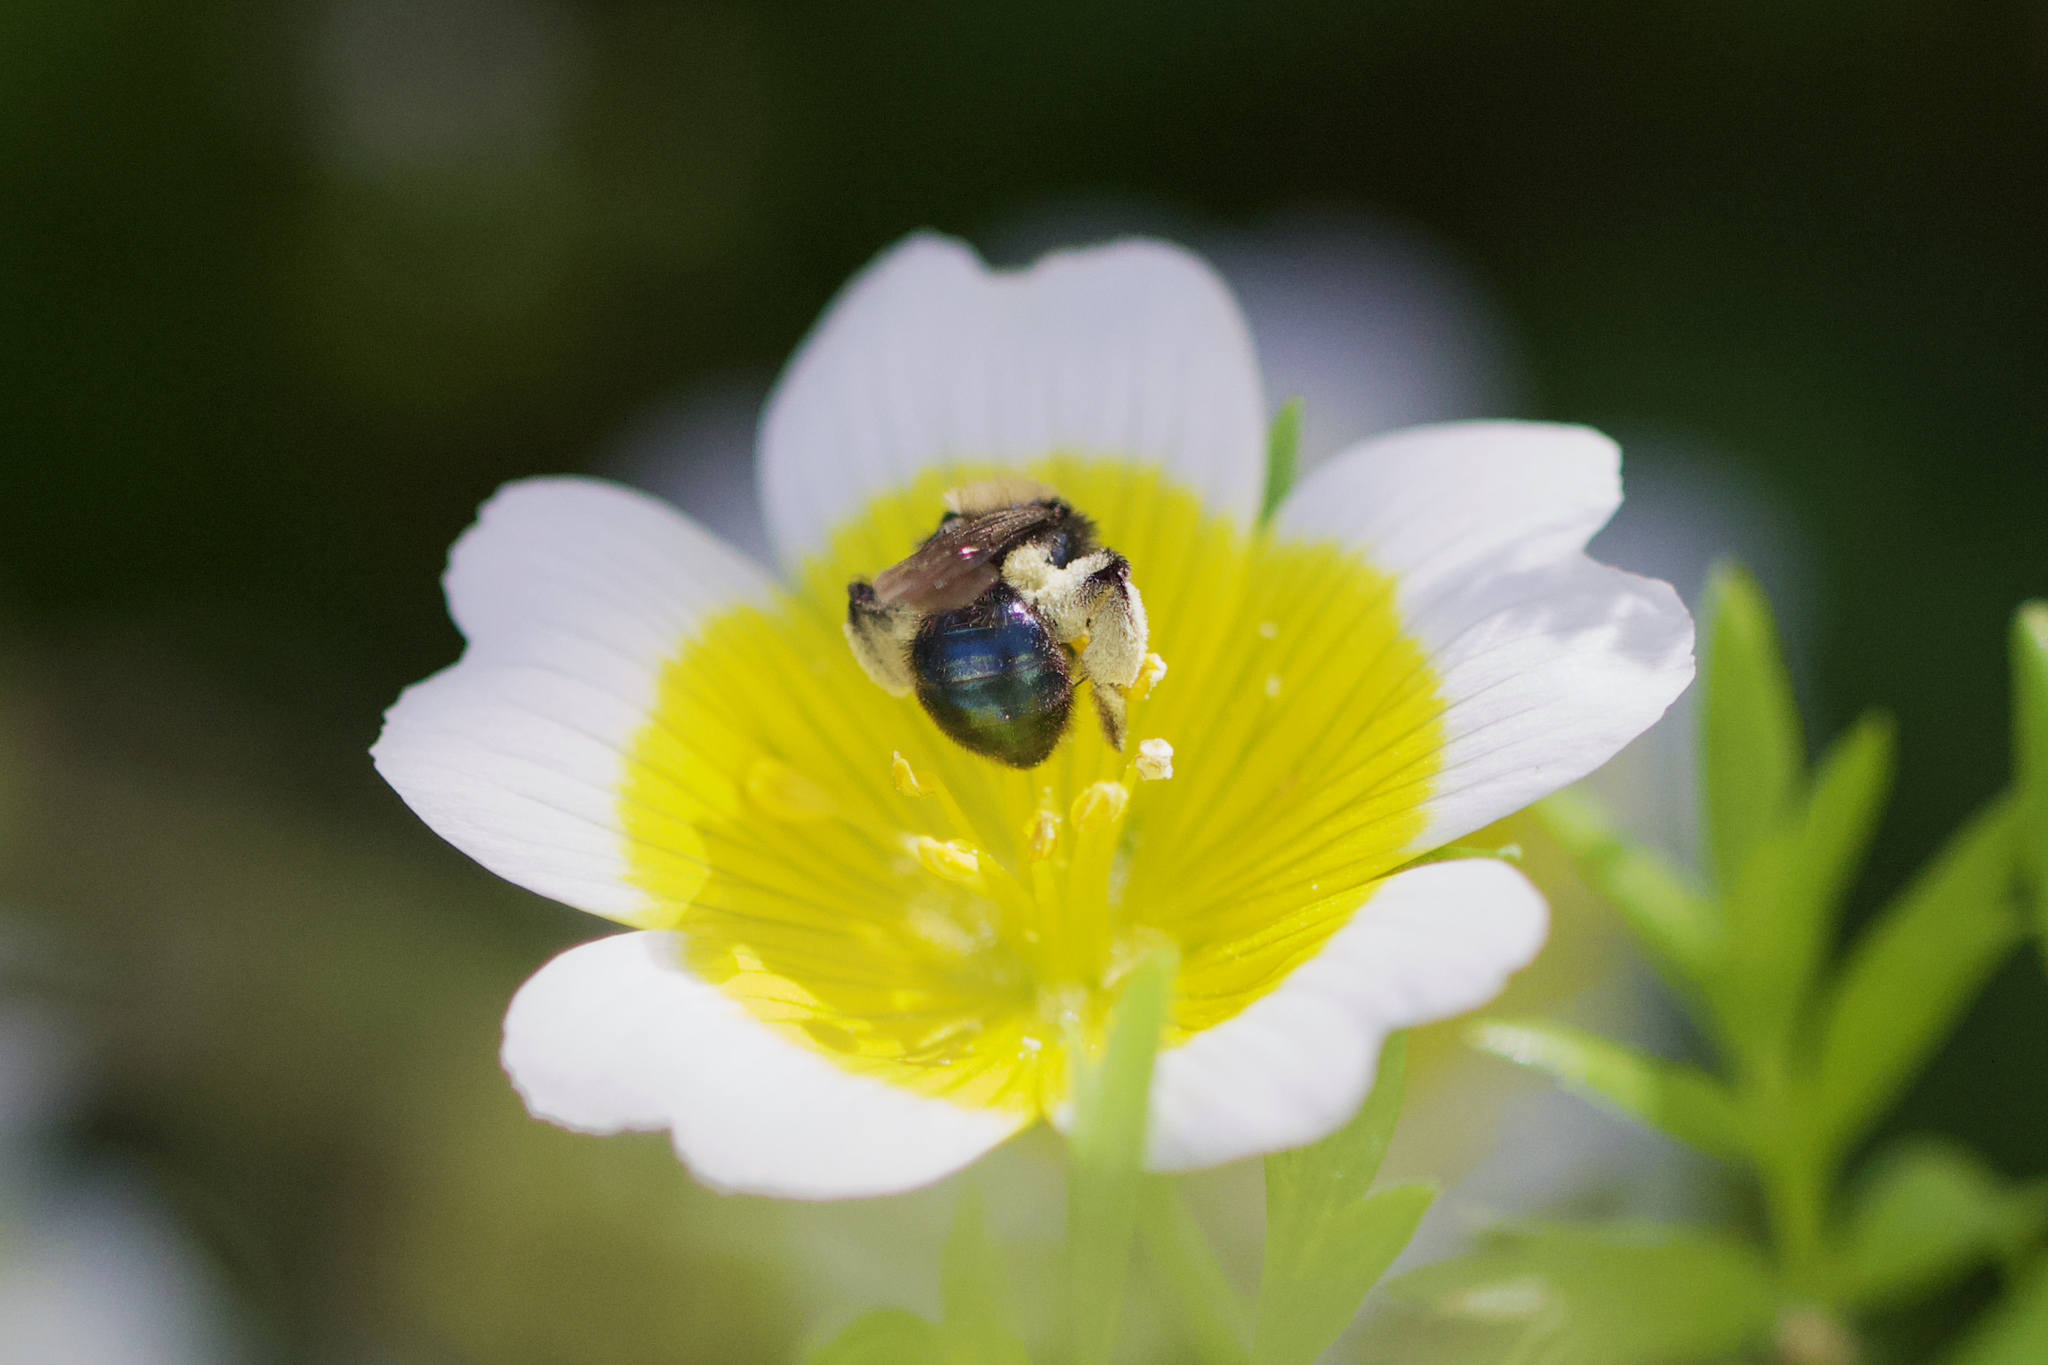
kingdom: Animalia
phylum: Arthropoda
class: Insecta
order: Hymenoptera
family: Andrenidae
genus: Andrena
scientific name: Andrena nigrocaerulea
